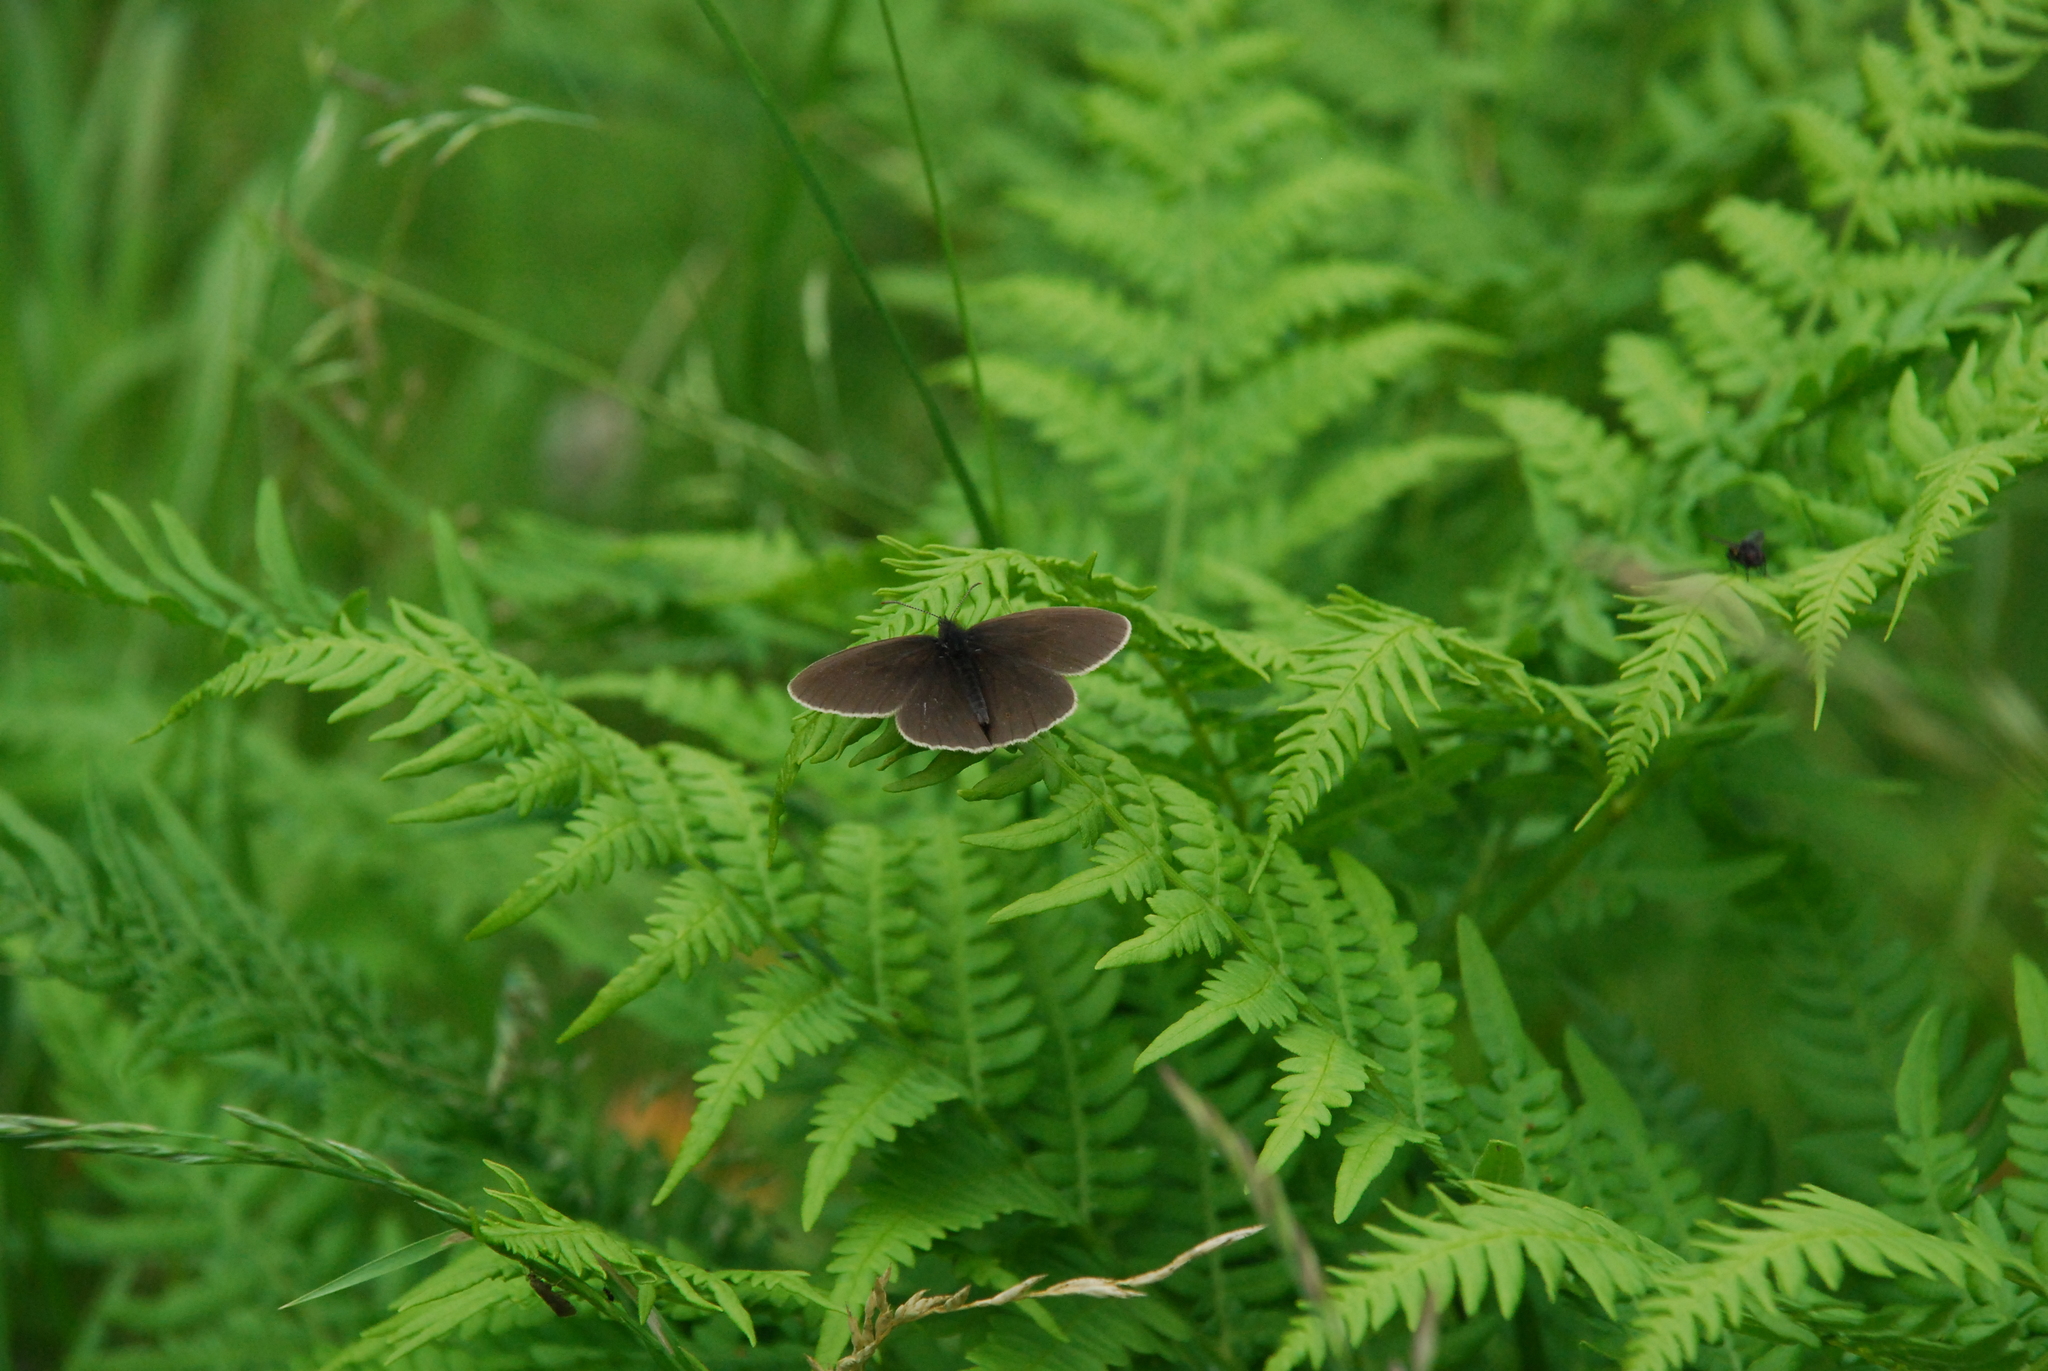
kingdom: Plantae
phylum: Tracheophyta
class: Polypodiopsida
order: Polypodiales
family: Dennstaedtiaceae
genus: Pteridium
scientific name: Pteridium aquilinum
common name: Bracken
